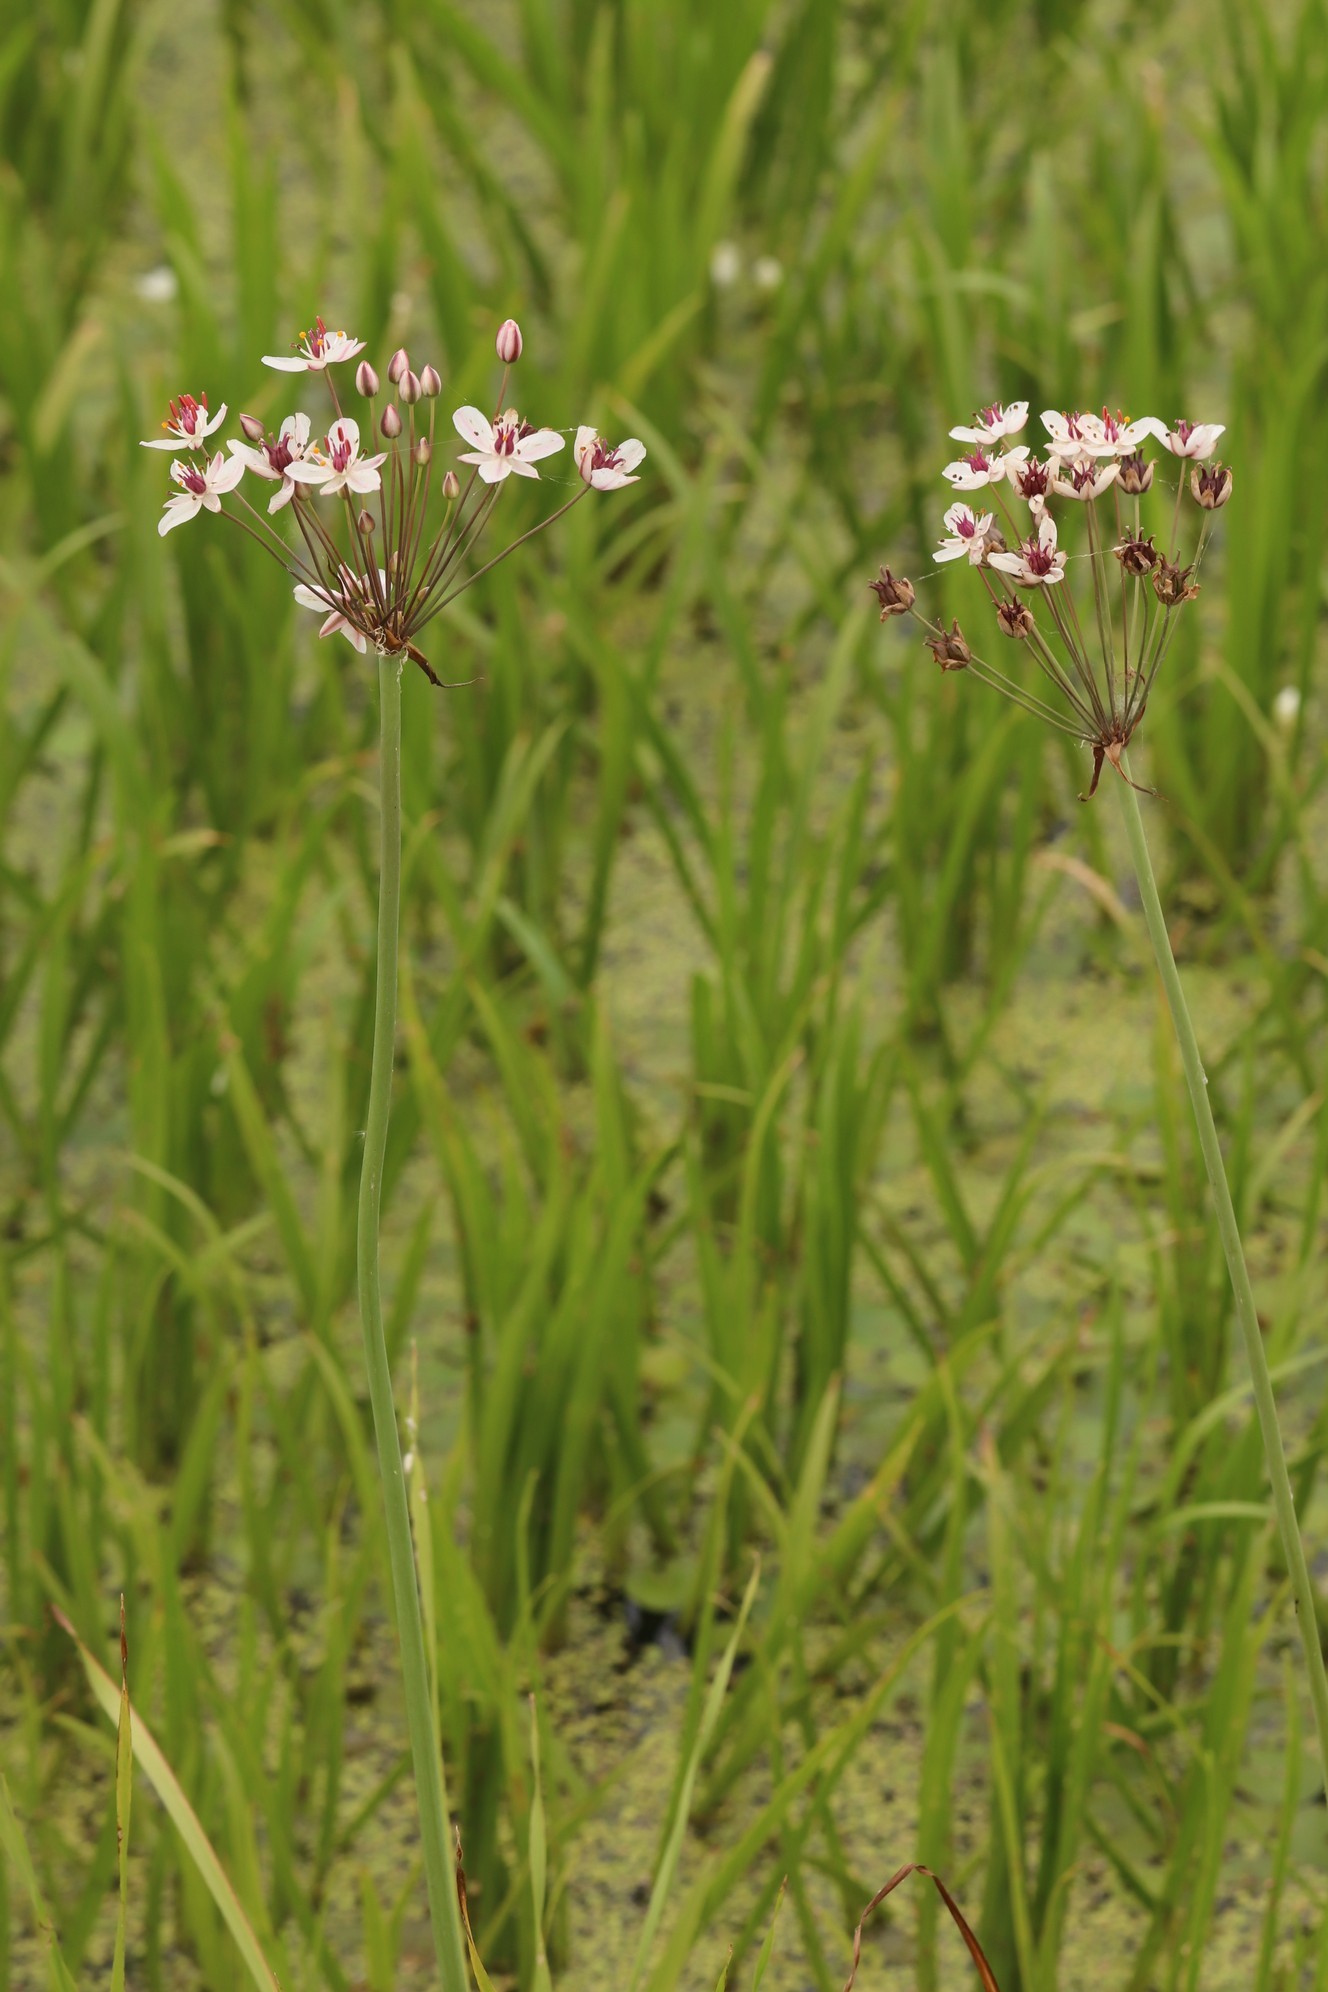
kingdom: Plantae
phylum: Tracheophyta
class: Liliopsida
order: Alismatales
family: Butomaceae
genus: Butomus
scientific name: Butomus umbellatus
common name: Flowering-rush
